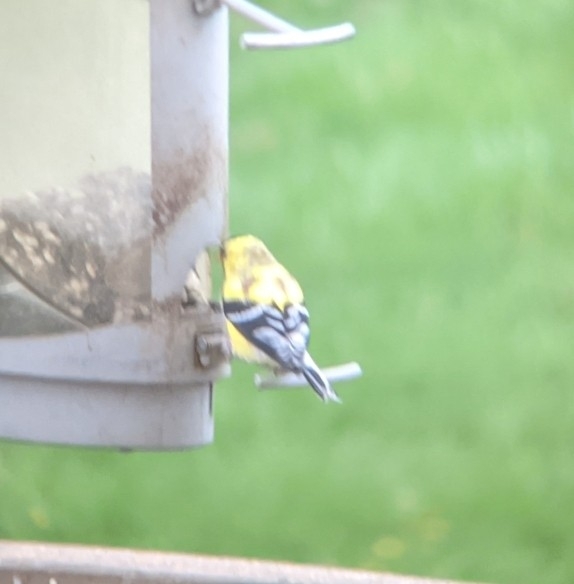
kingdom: Animalia
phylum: Chordata
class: Aves
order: Passeriformes
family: Fringillidae
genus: Spinus
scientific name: Spinus tristis
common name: American goldfinch
